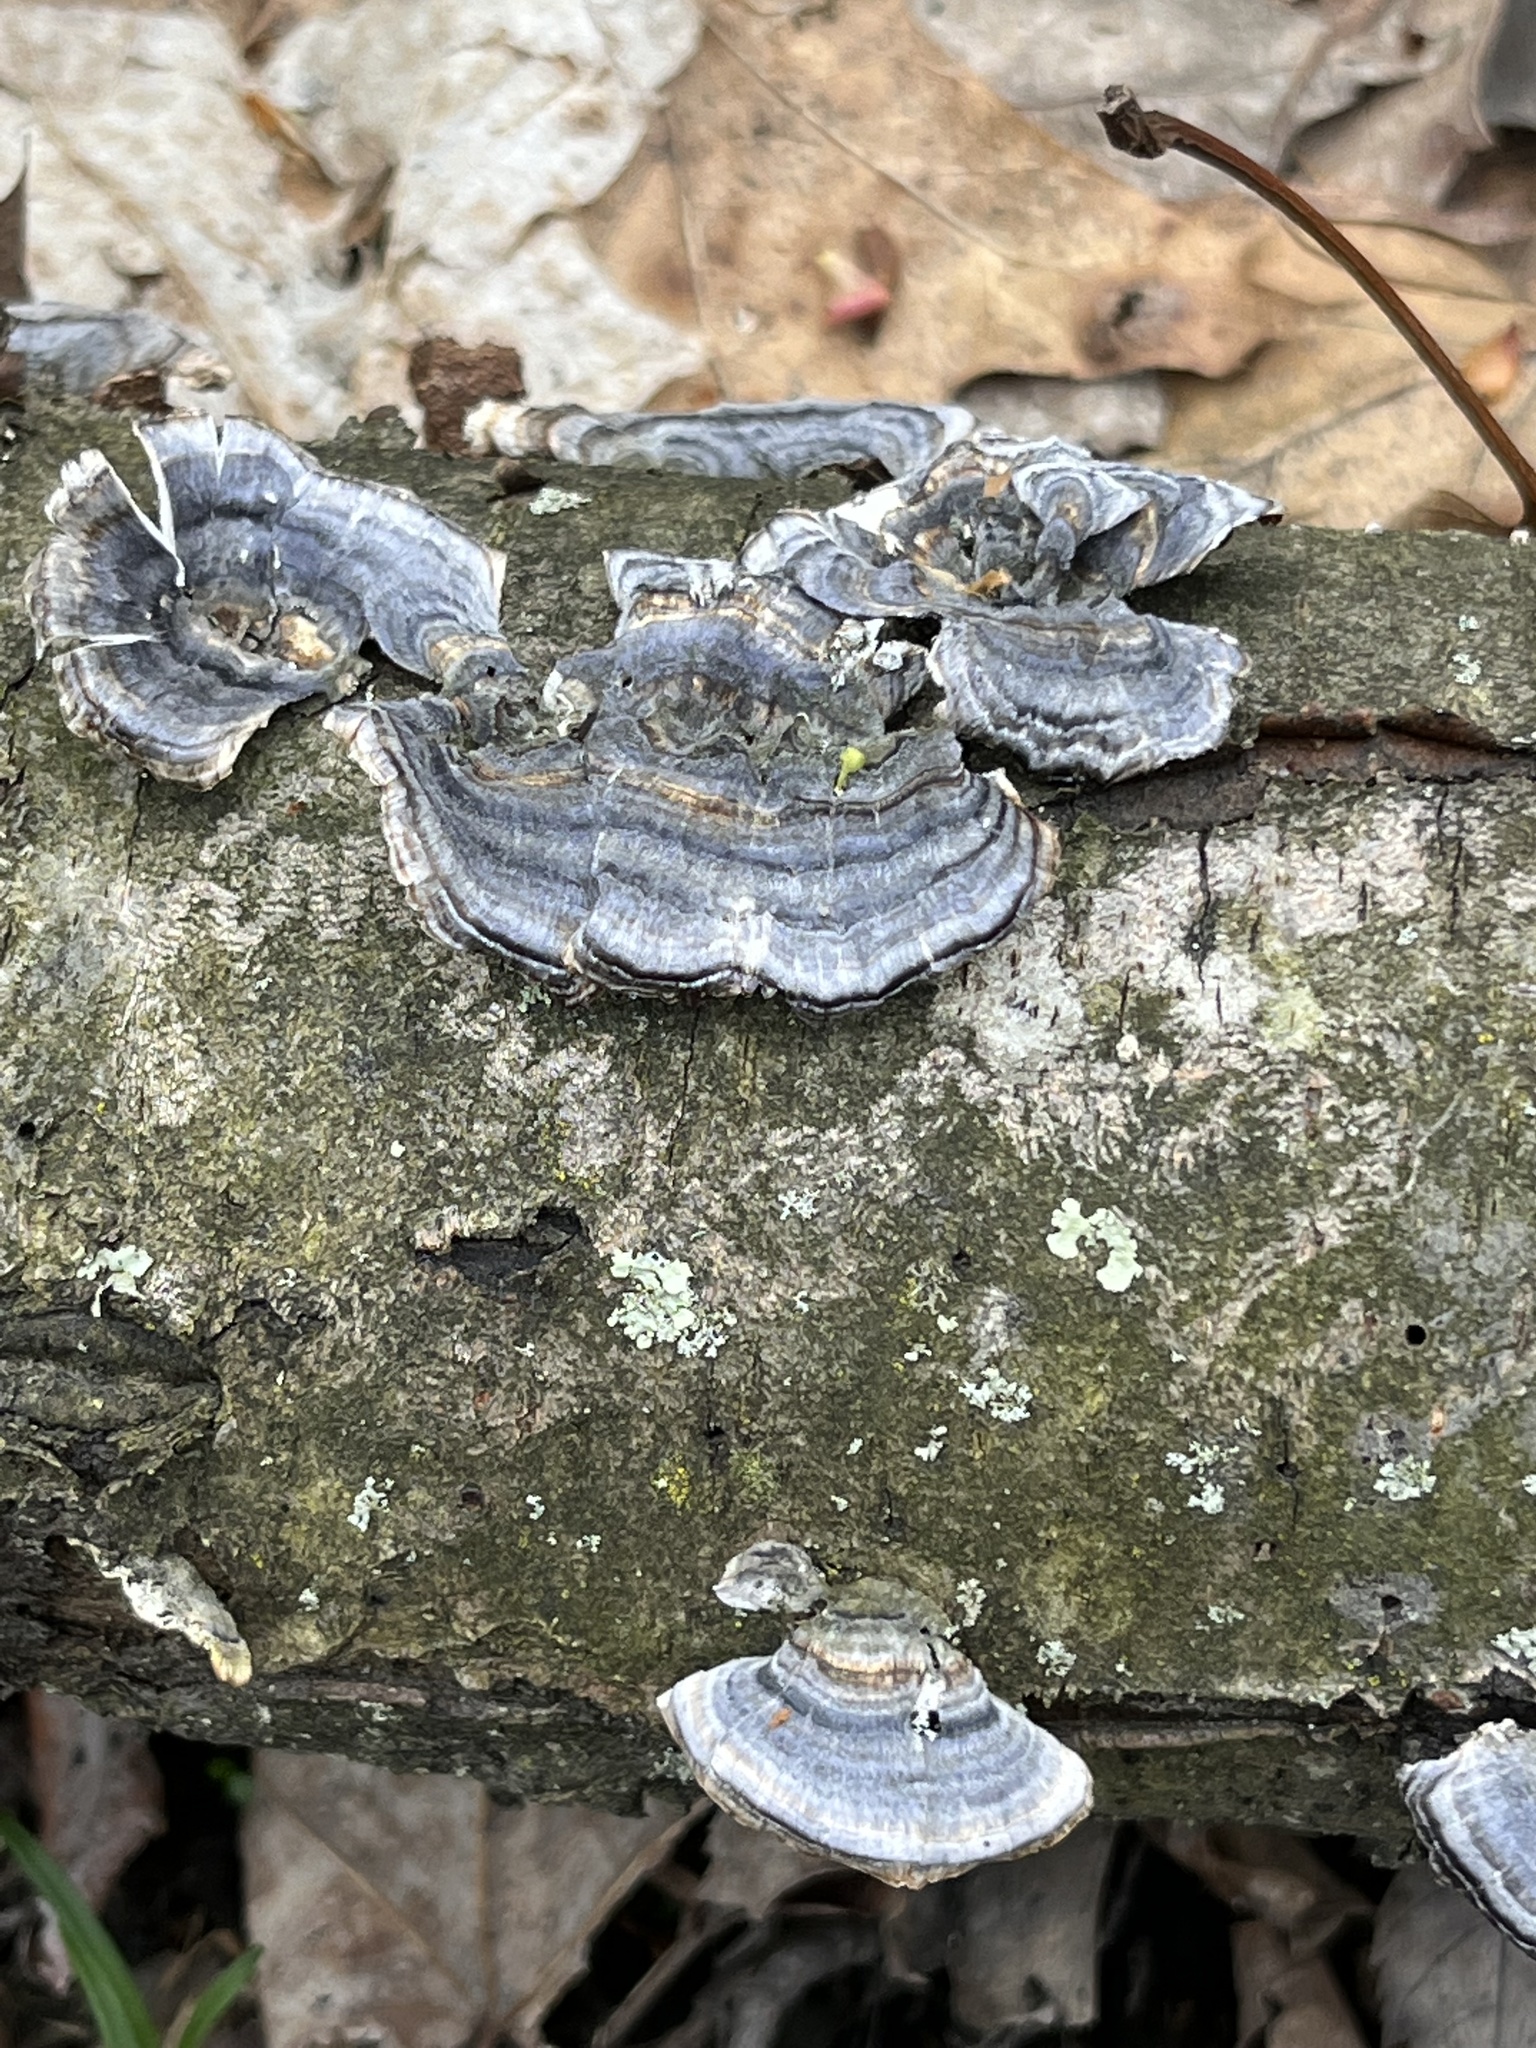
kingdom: Fungi
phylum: Basidiomycota
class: Agaricomycetes
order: Polyporales
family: Polyporaceae
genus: Trametes
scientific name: Trametes versicolor
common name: Turkeytail
